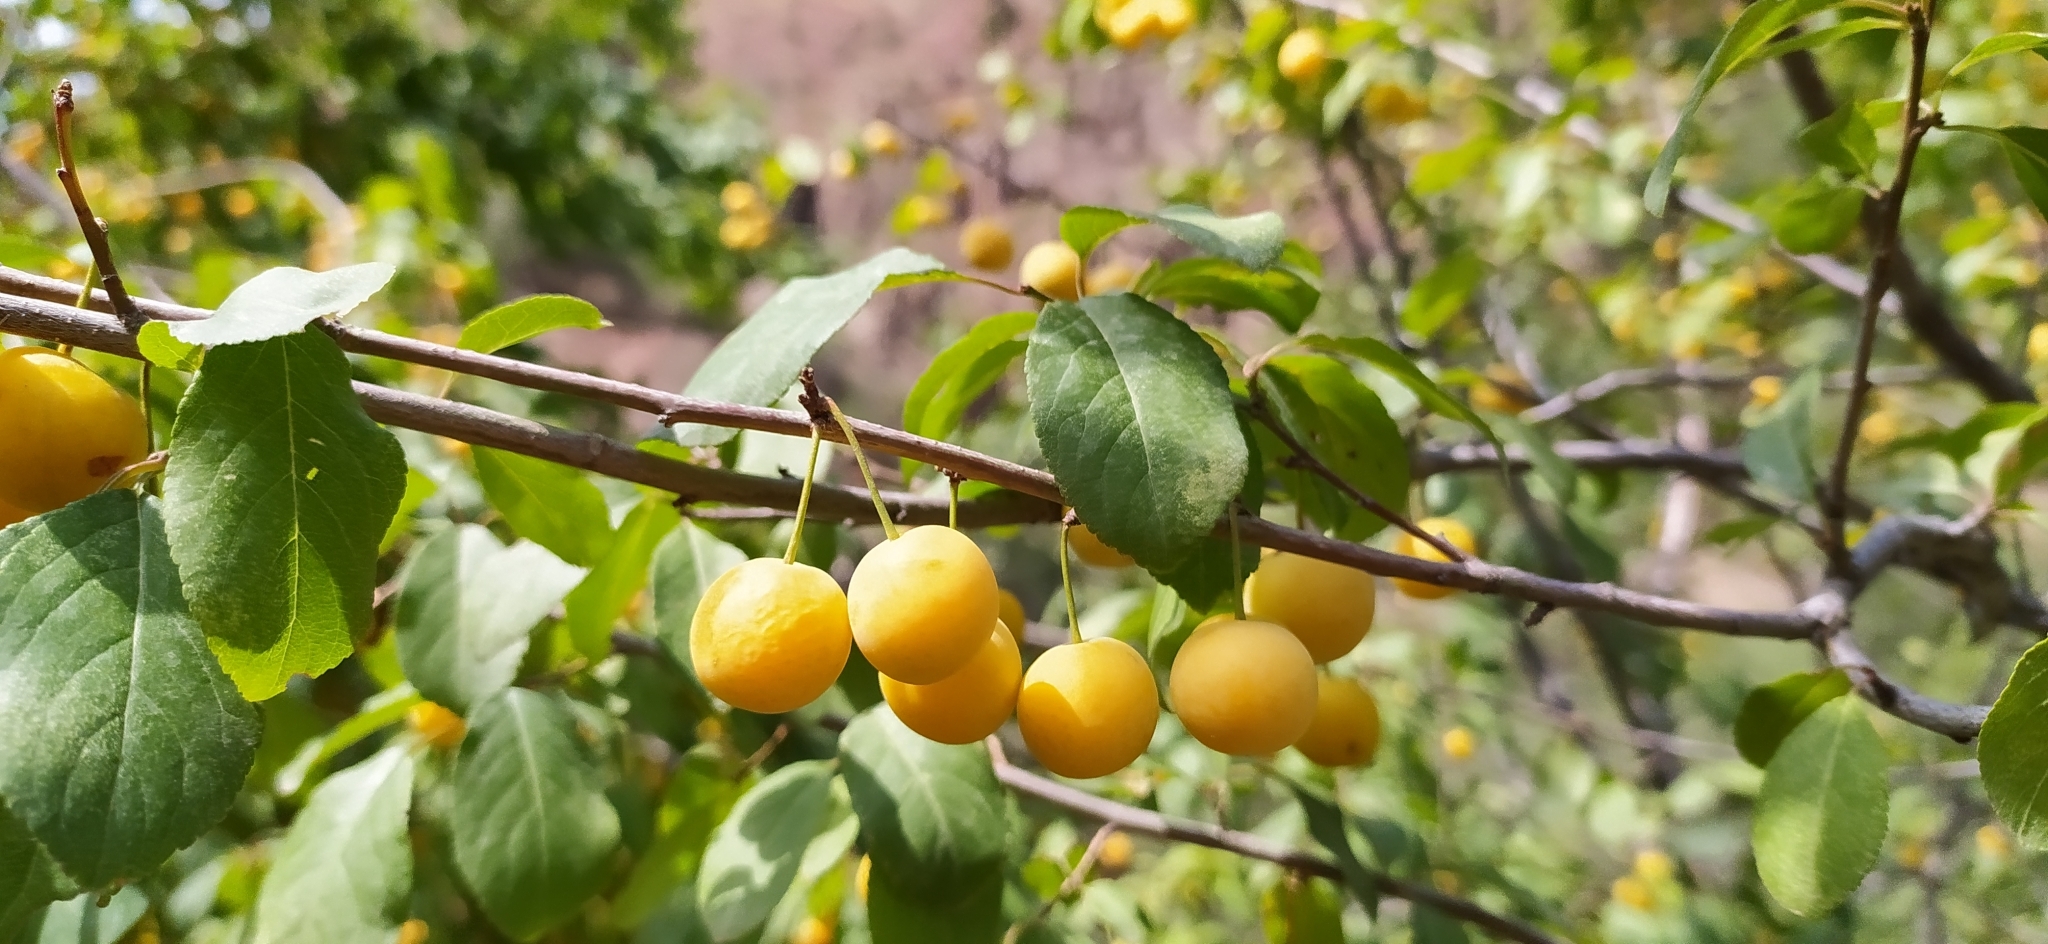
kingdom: Plantae
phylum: Tracheophyta
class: Magnoliopsida
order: Rosales
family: Rosaceae
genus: Prunus
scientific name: Prunus cerasifera
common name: Cherry plum
